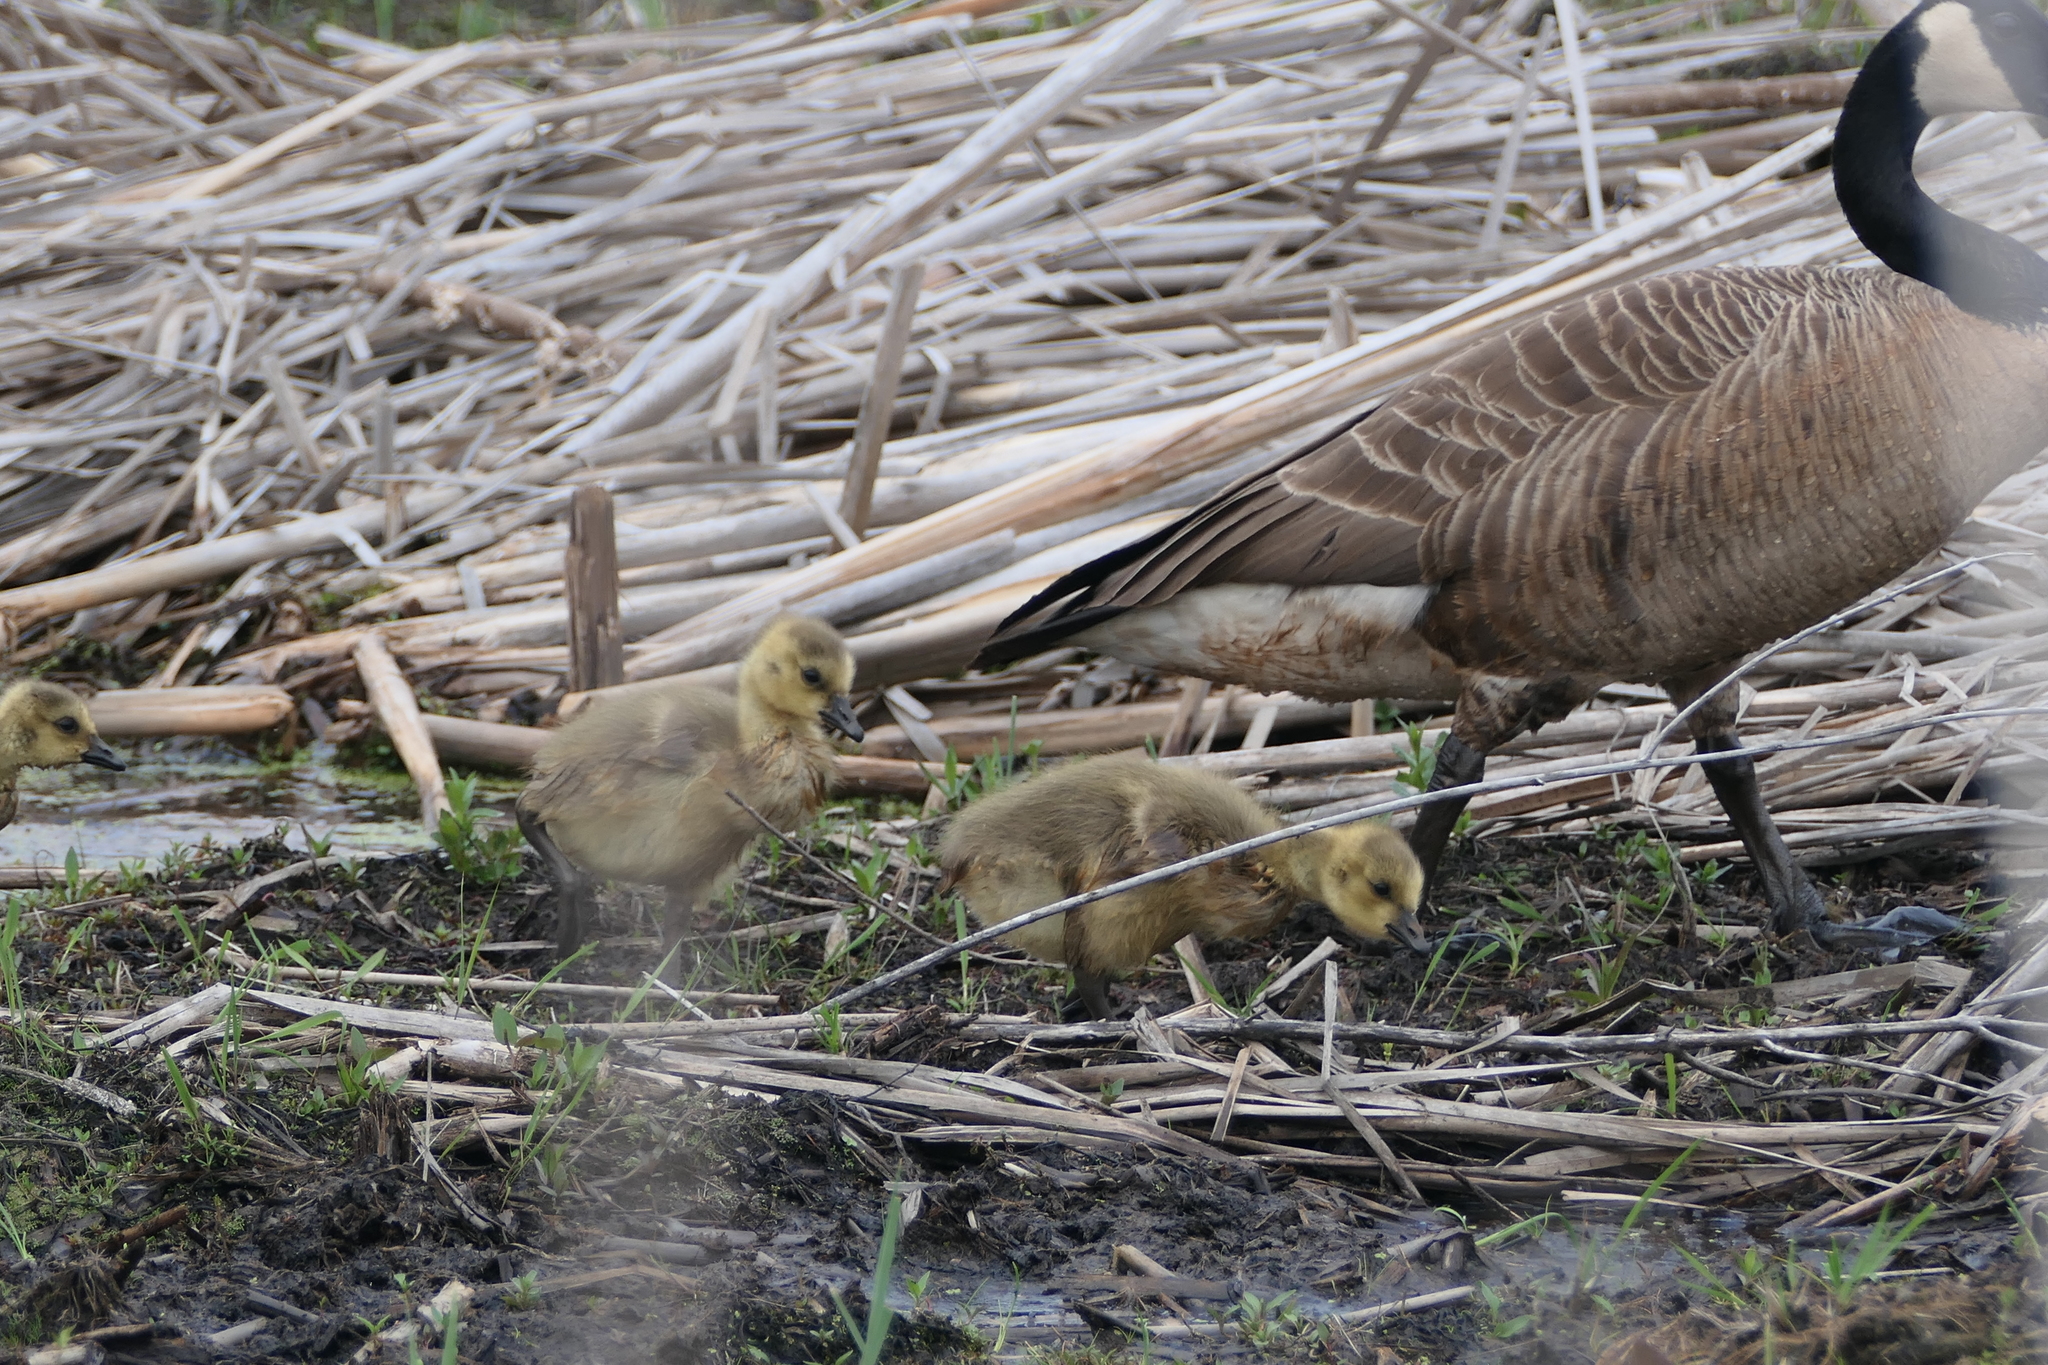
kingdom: Animalia
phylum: Chordata
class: Aves
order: Anseriformes
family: Anatidae
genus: Branta
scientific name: Branta canadensis
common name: Canada goose
